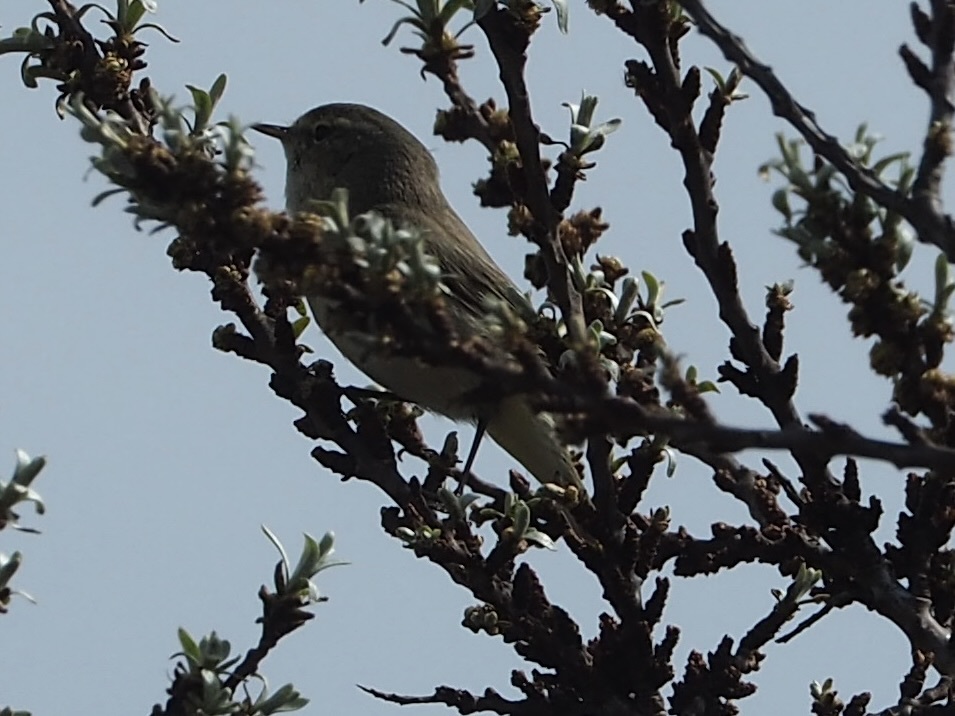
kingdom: Animalia
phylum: Chordata
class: Aves
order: Passeriformes
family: Phylloscopidae
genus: Phylloscopus
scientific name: Phylloscopus trochilus
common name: Willow warbler
